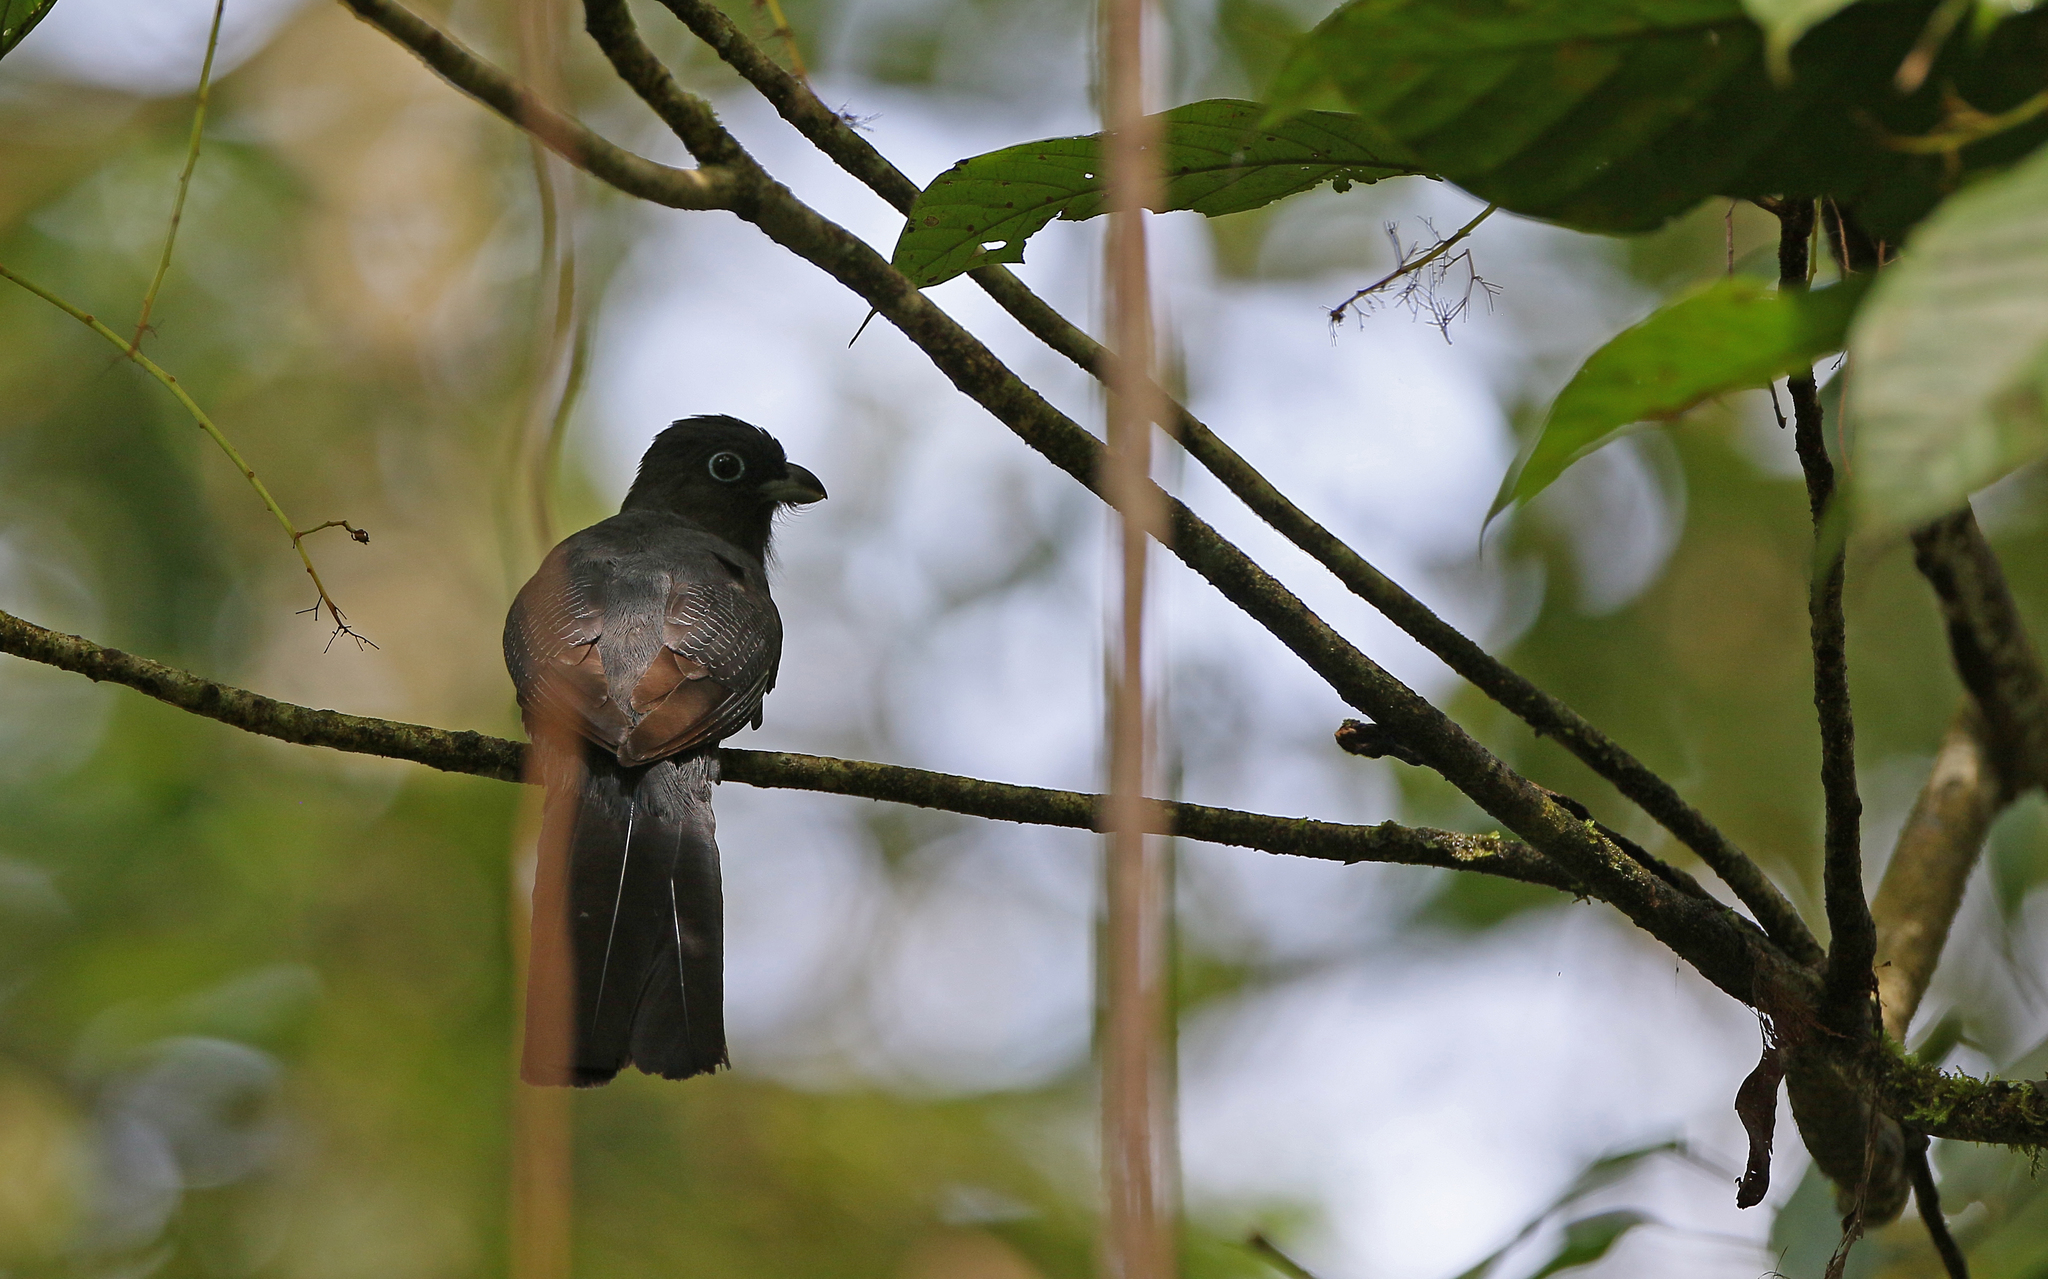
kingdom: Animalia
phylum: Chordata
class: Aves
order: Trogoniformes
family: Trogonidae
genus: Trogon
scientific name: Trogon viridis
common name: Green-backed trogon
